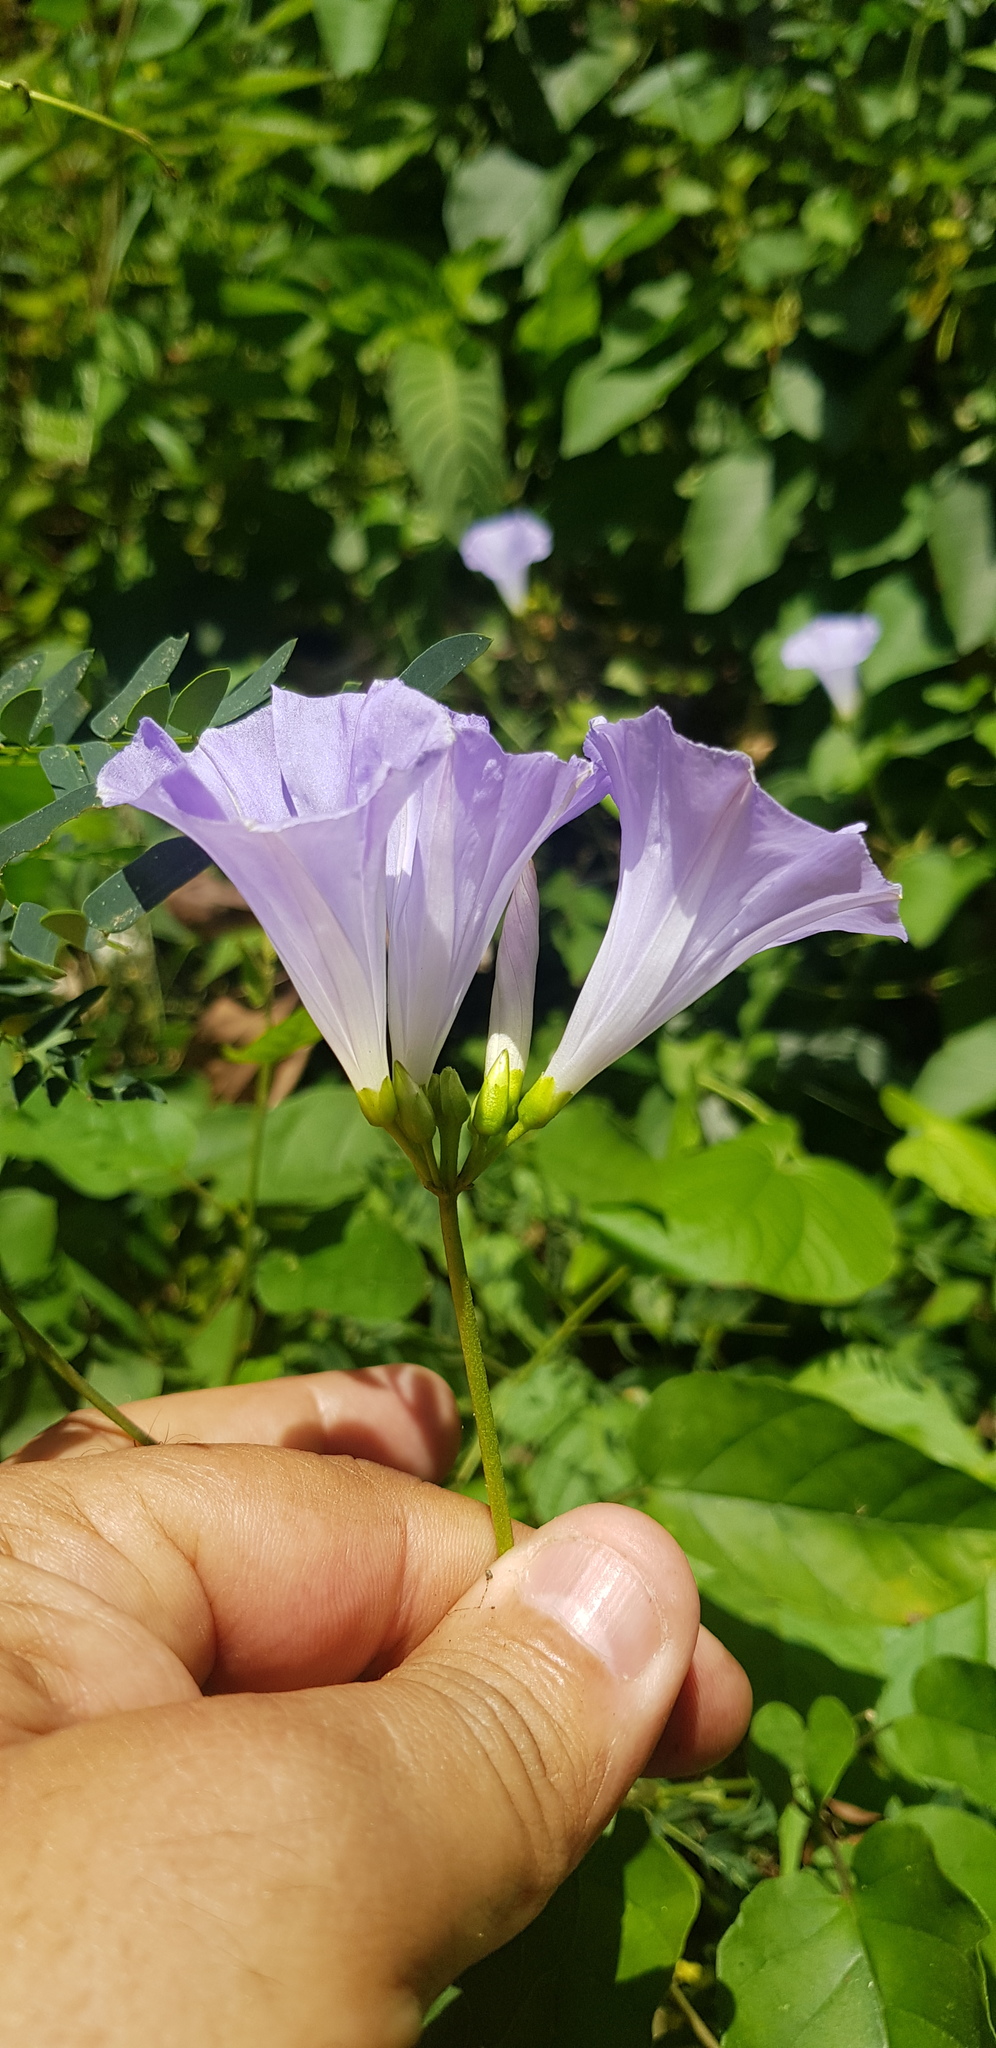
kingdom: Plantae
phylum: Tracheophyta
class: Magnoliopsida
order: Solanales
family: Convolvulaceae
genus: Jacquemontia
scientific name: Jacquemontia oaxacana
